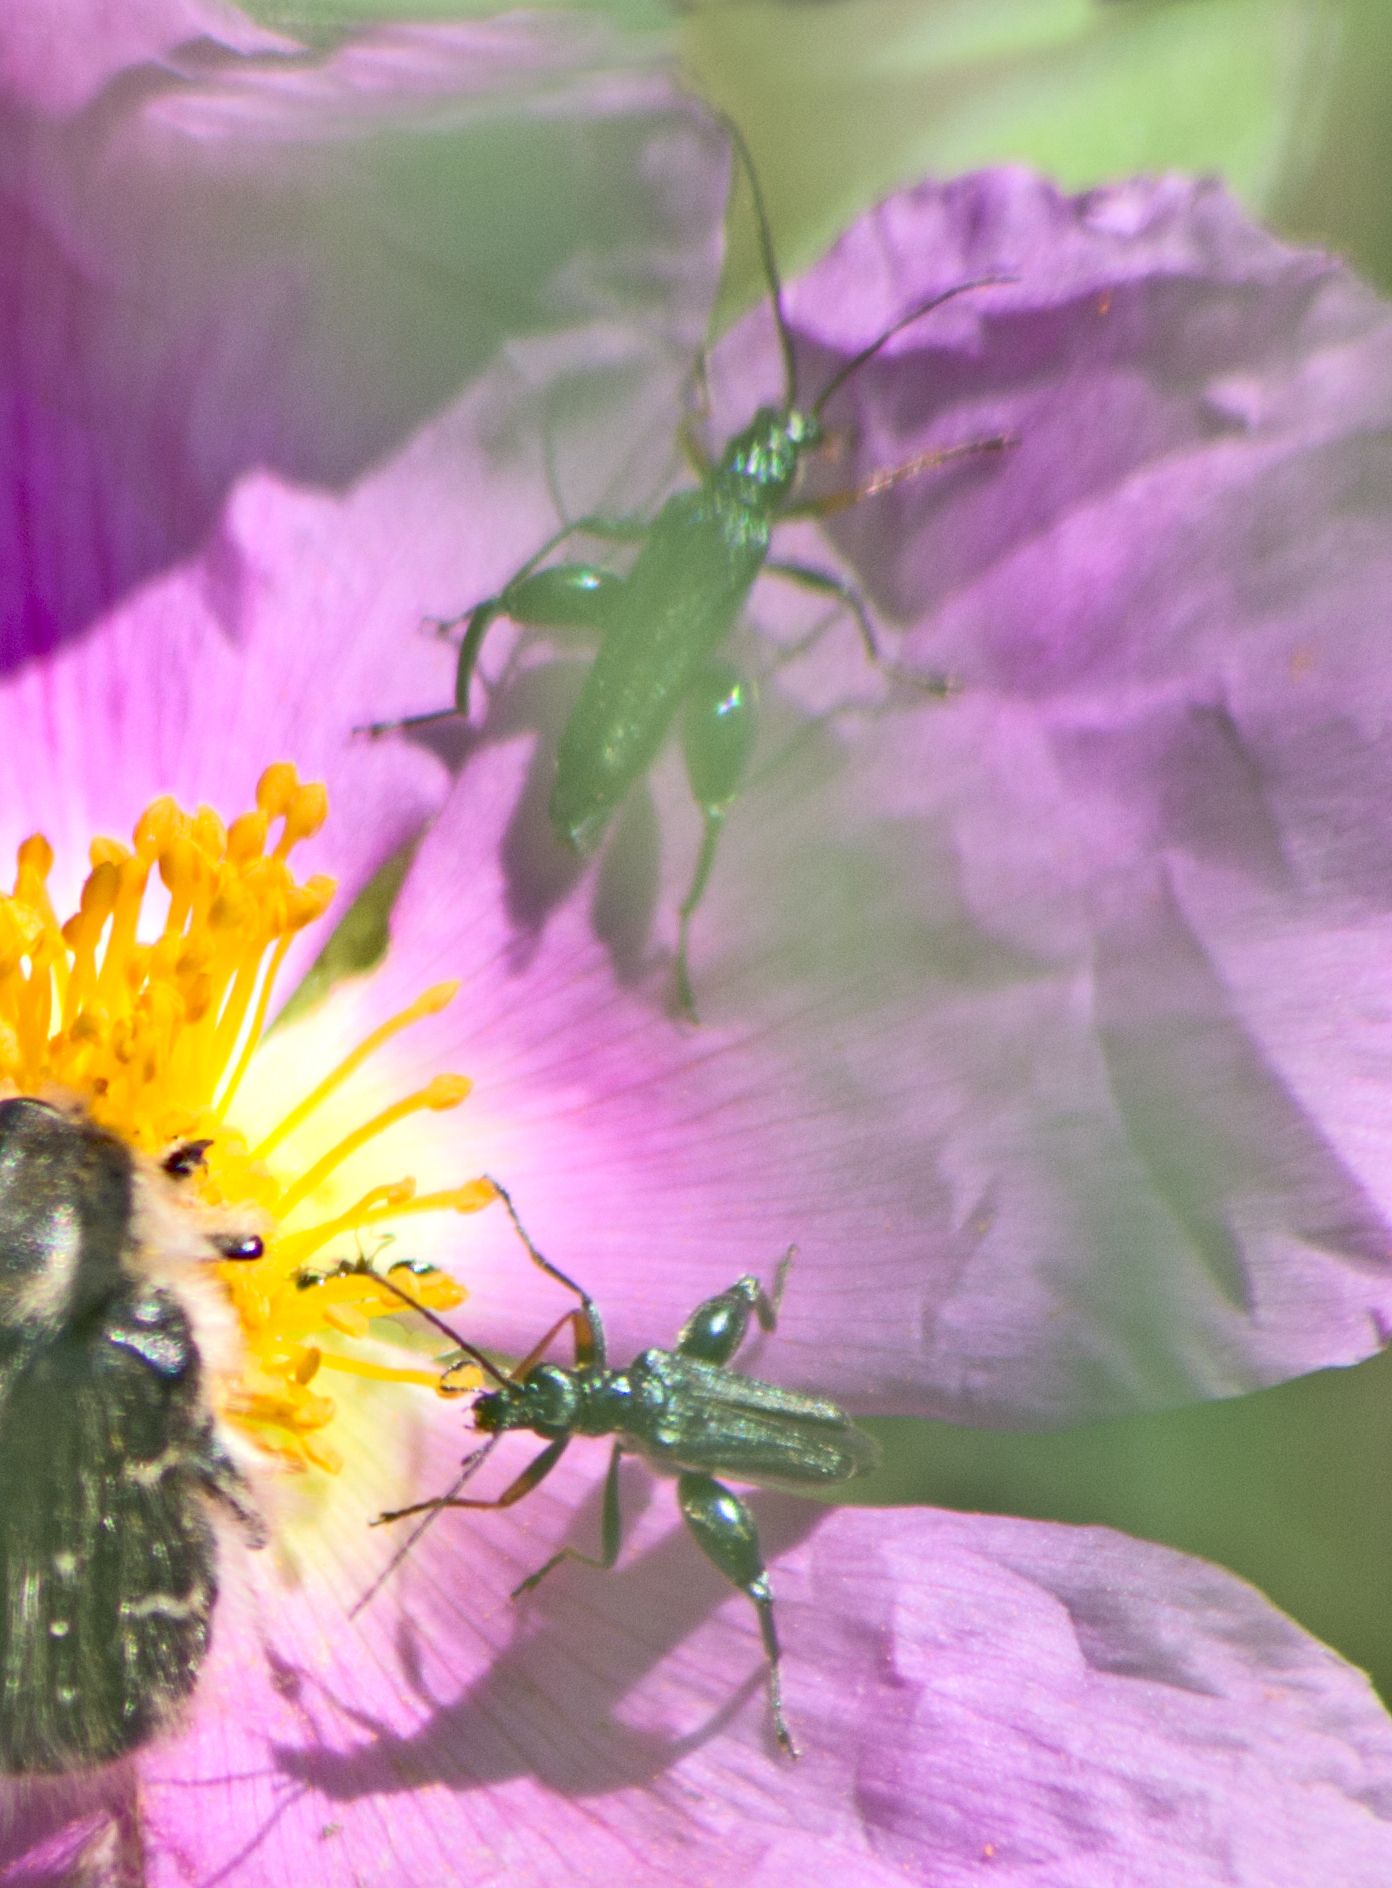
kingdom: Animalia
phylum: Arthropoda
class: Insecta
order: Coleoptera
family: Oedemeridae
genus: Oedemera
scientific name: Oedemera flavipes
